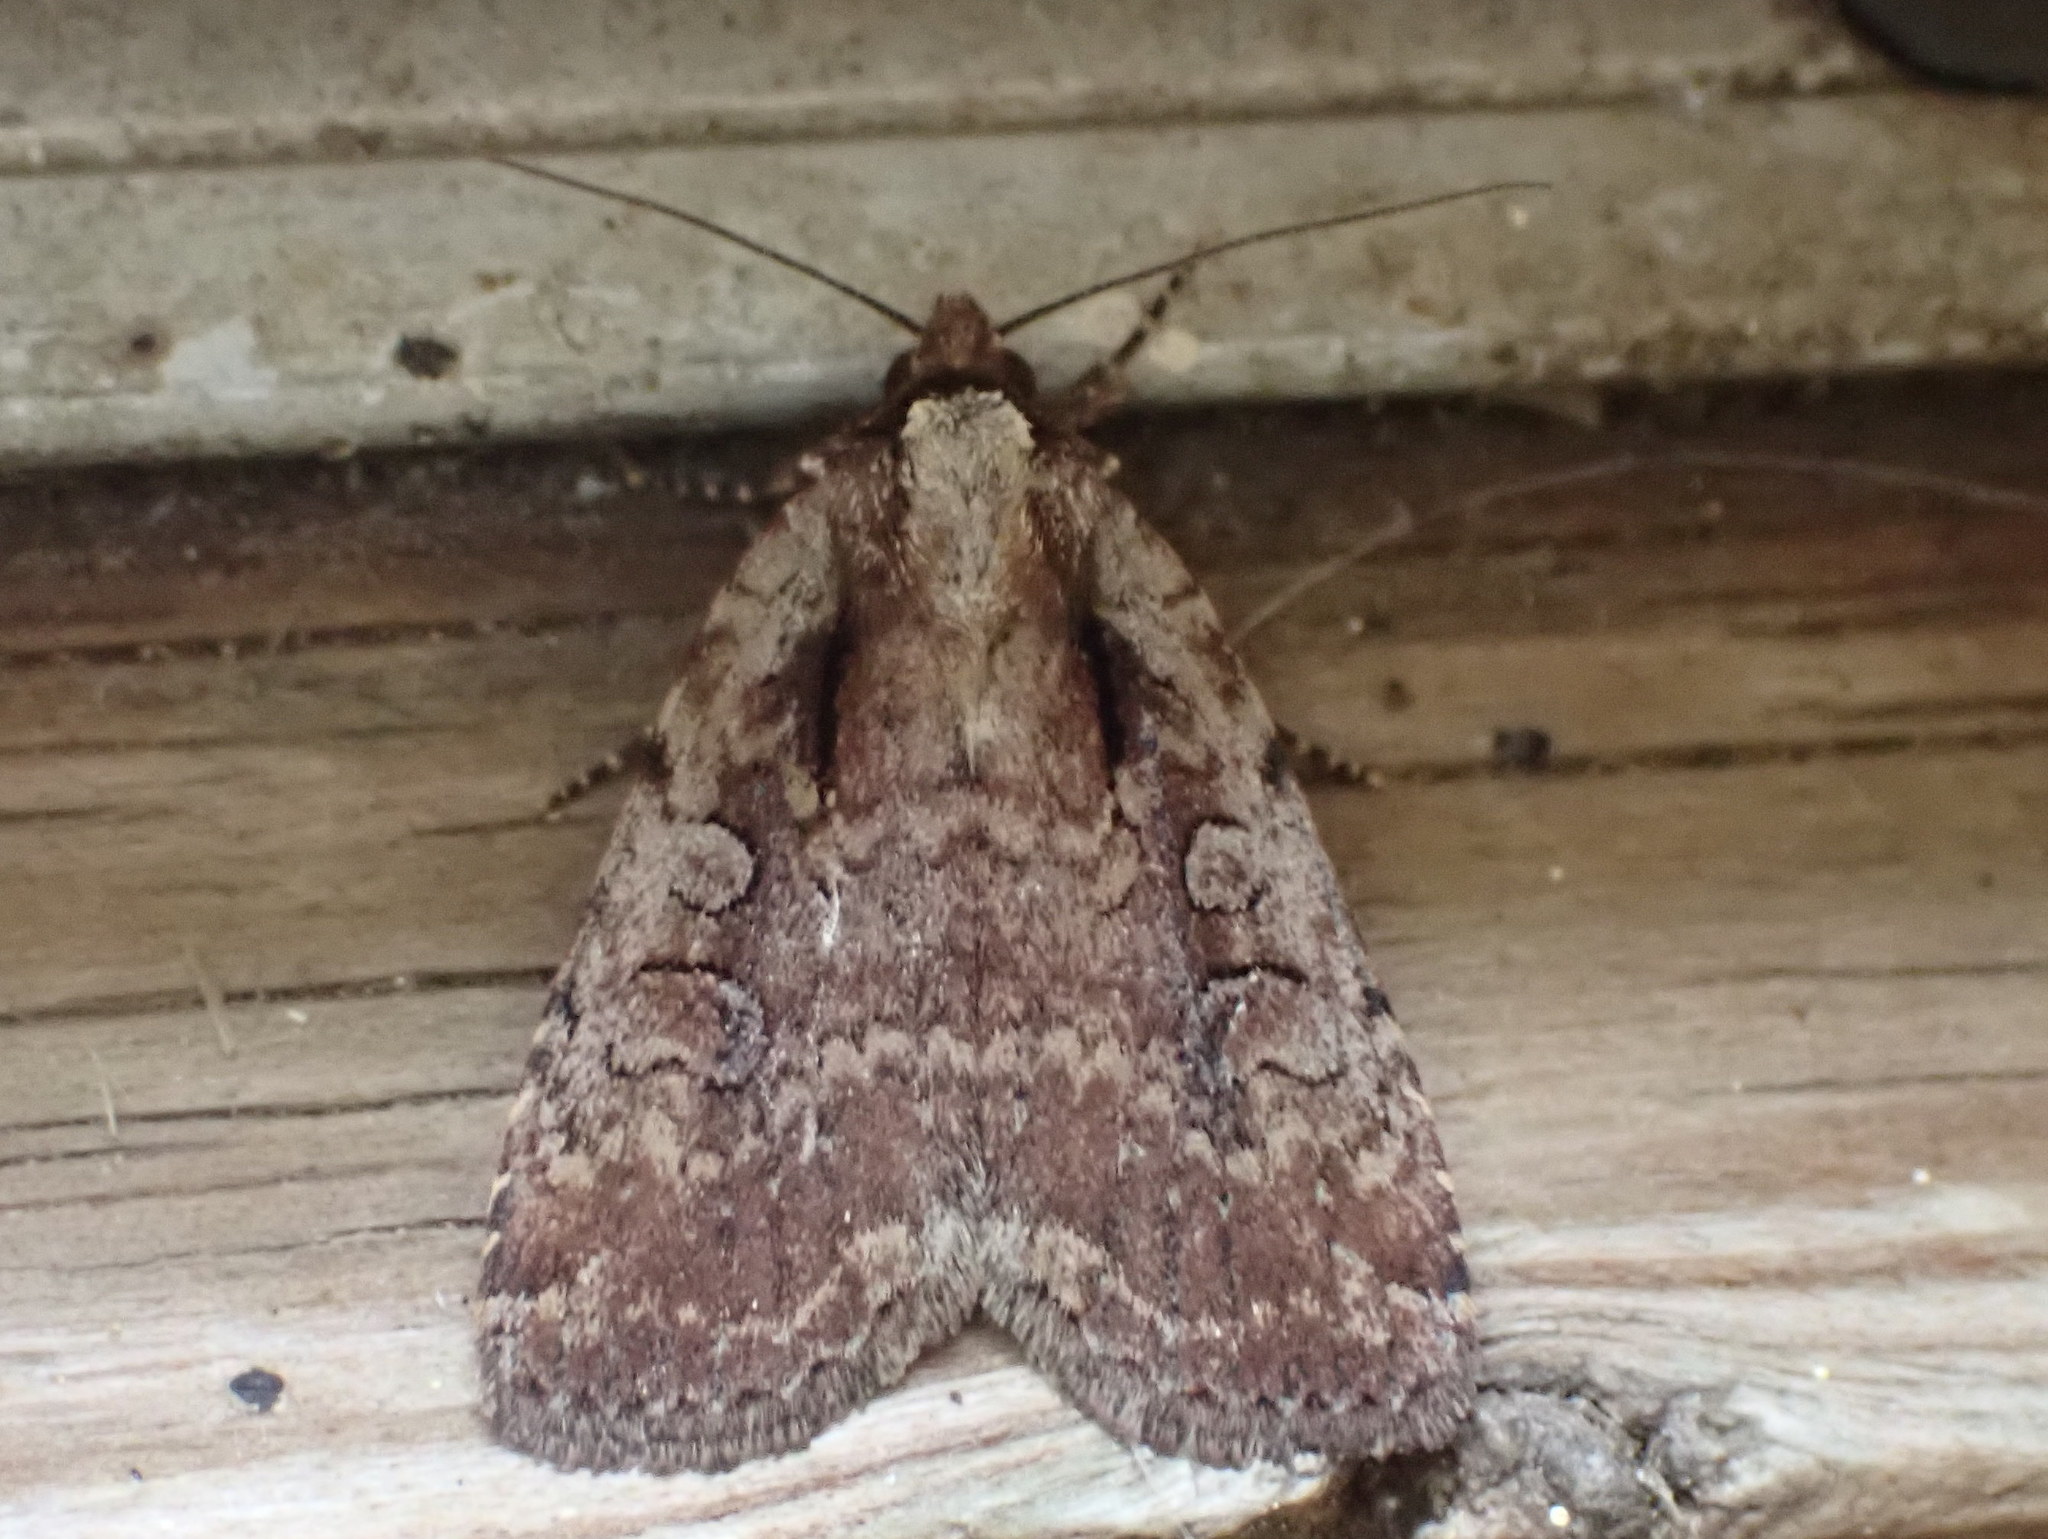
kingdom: Animalia
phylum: Arthropoda
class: Insecta
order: Lepidoptera
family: Noctuidae
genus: Eueretagrotis
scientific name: Eueretagrotis attentus
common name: Attentive dart
